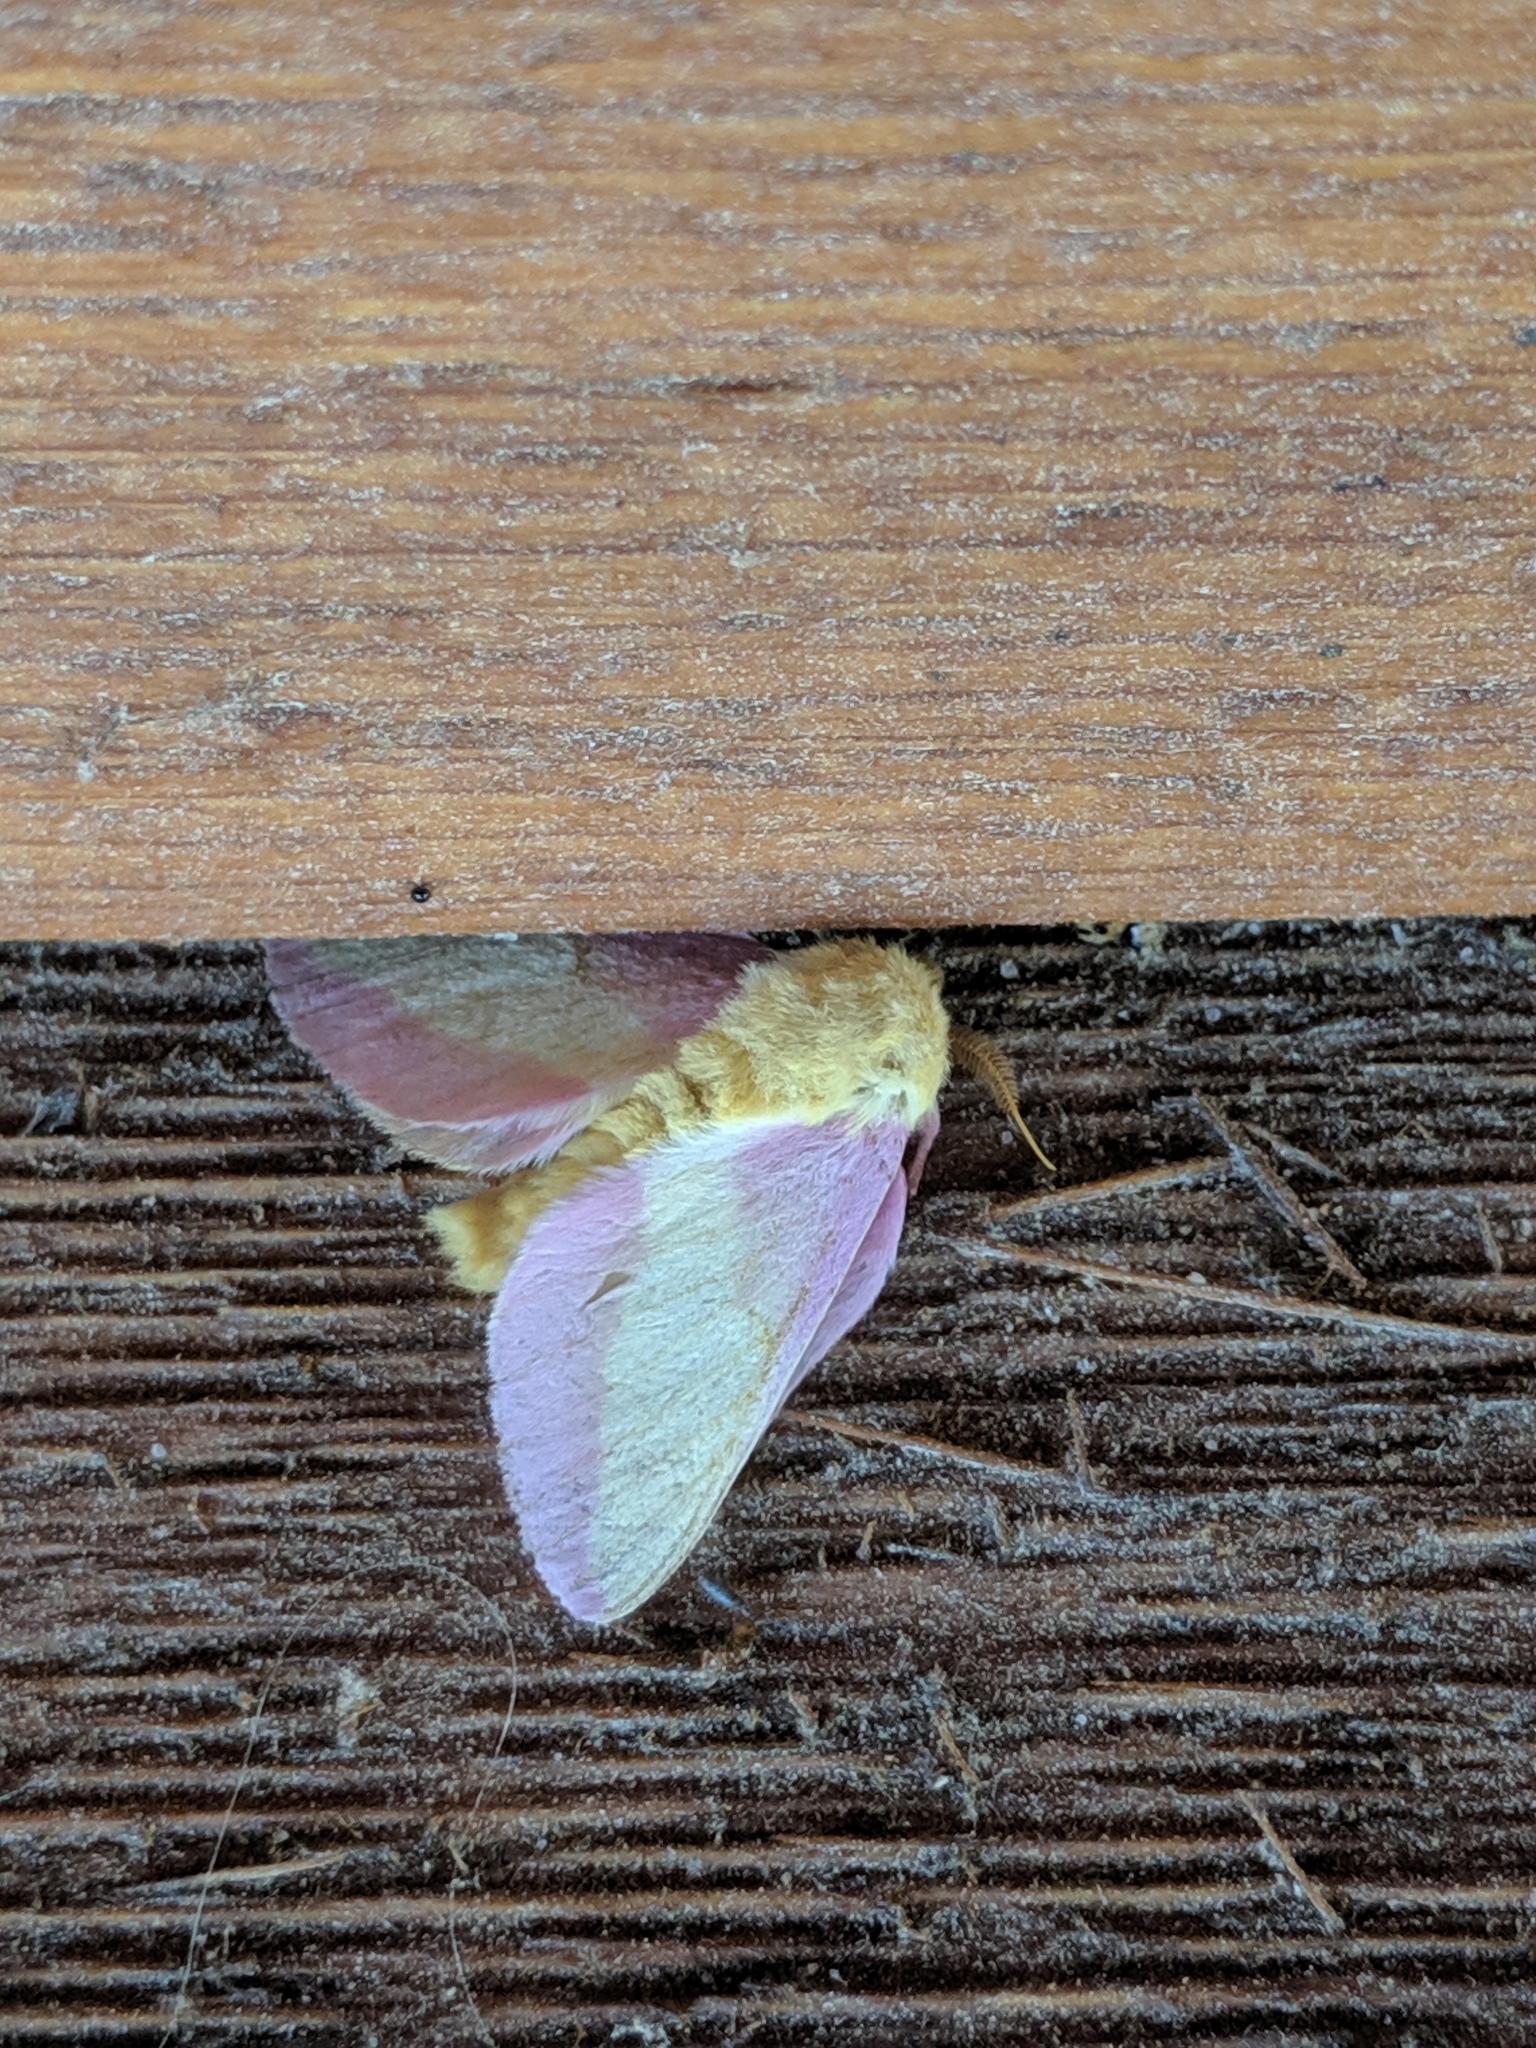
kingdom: Animalia
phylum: Arthropoda
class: Insecta
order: Lepidoptera
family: Saturniidae
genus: Dryocampa
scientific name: Dryocampa rubicunda
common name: Rosy maple moth
